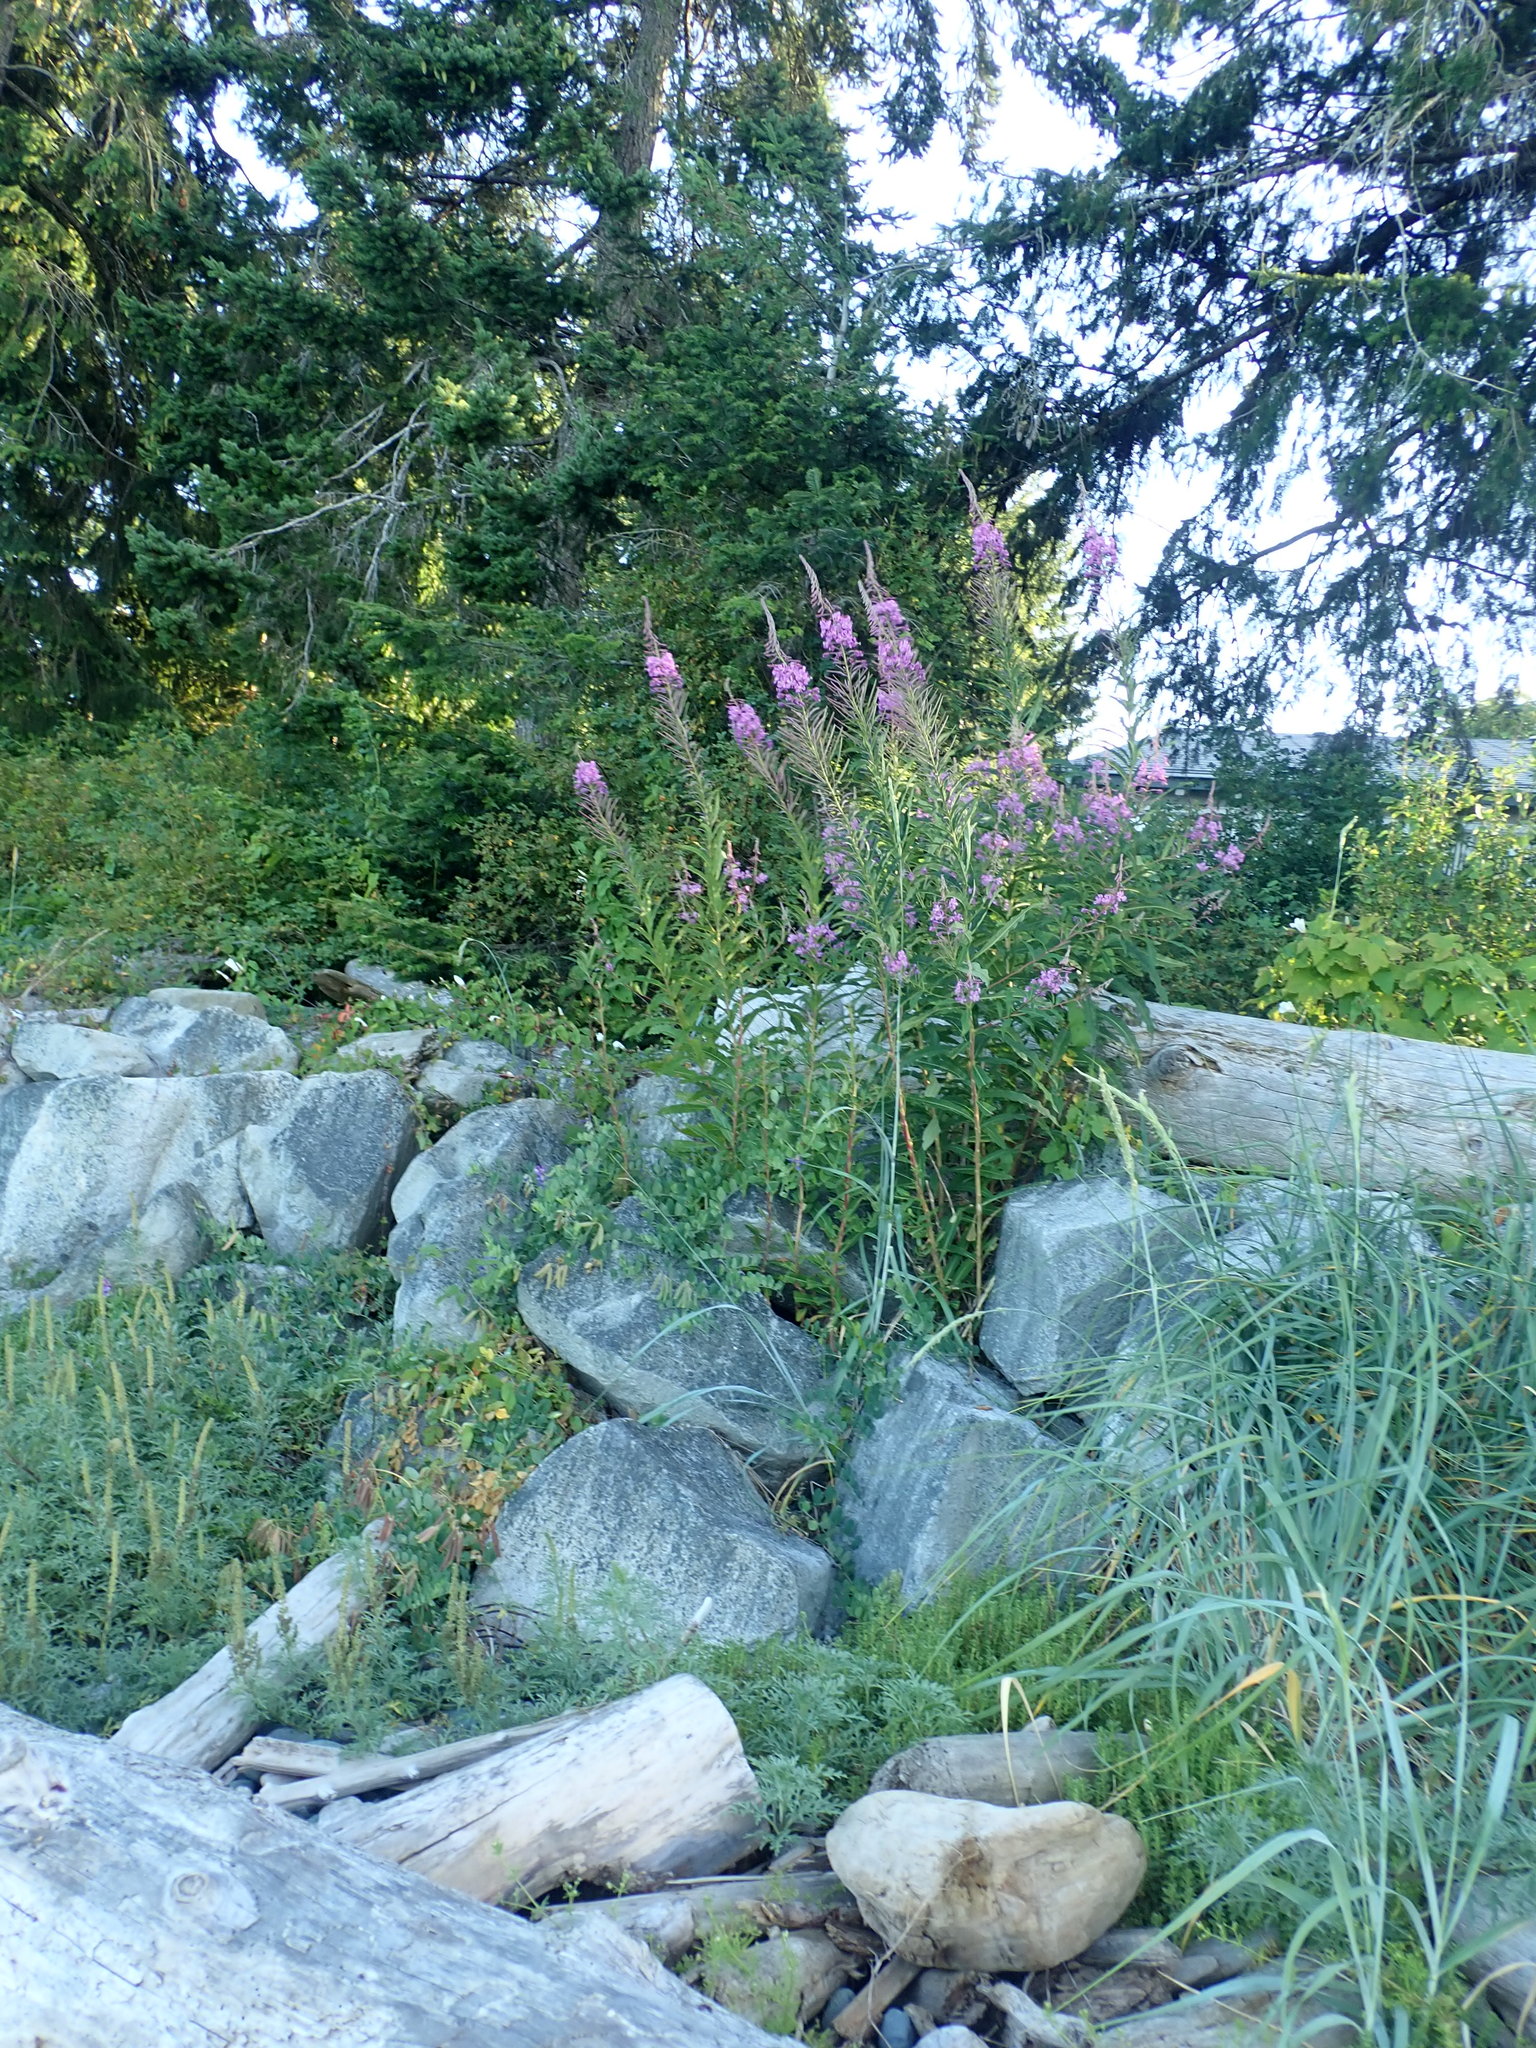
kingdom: Plantae
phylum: Tracheophyta
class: Magnoliopsida
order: Myrtales
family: Onagraceae
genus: Chamaenerion
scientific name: Chamaenerion angustifolium
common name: Fireweed
